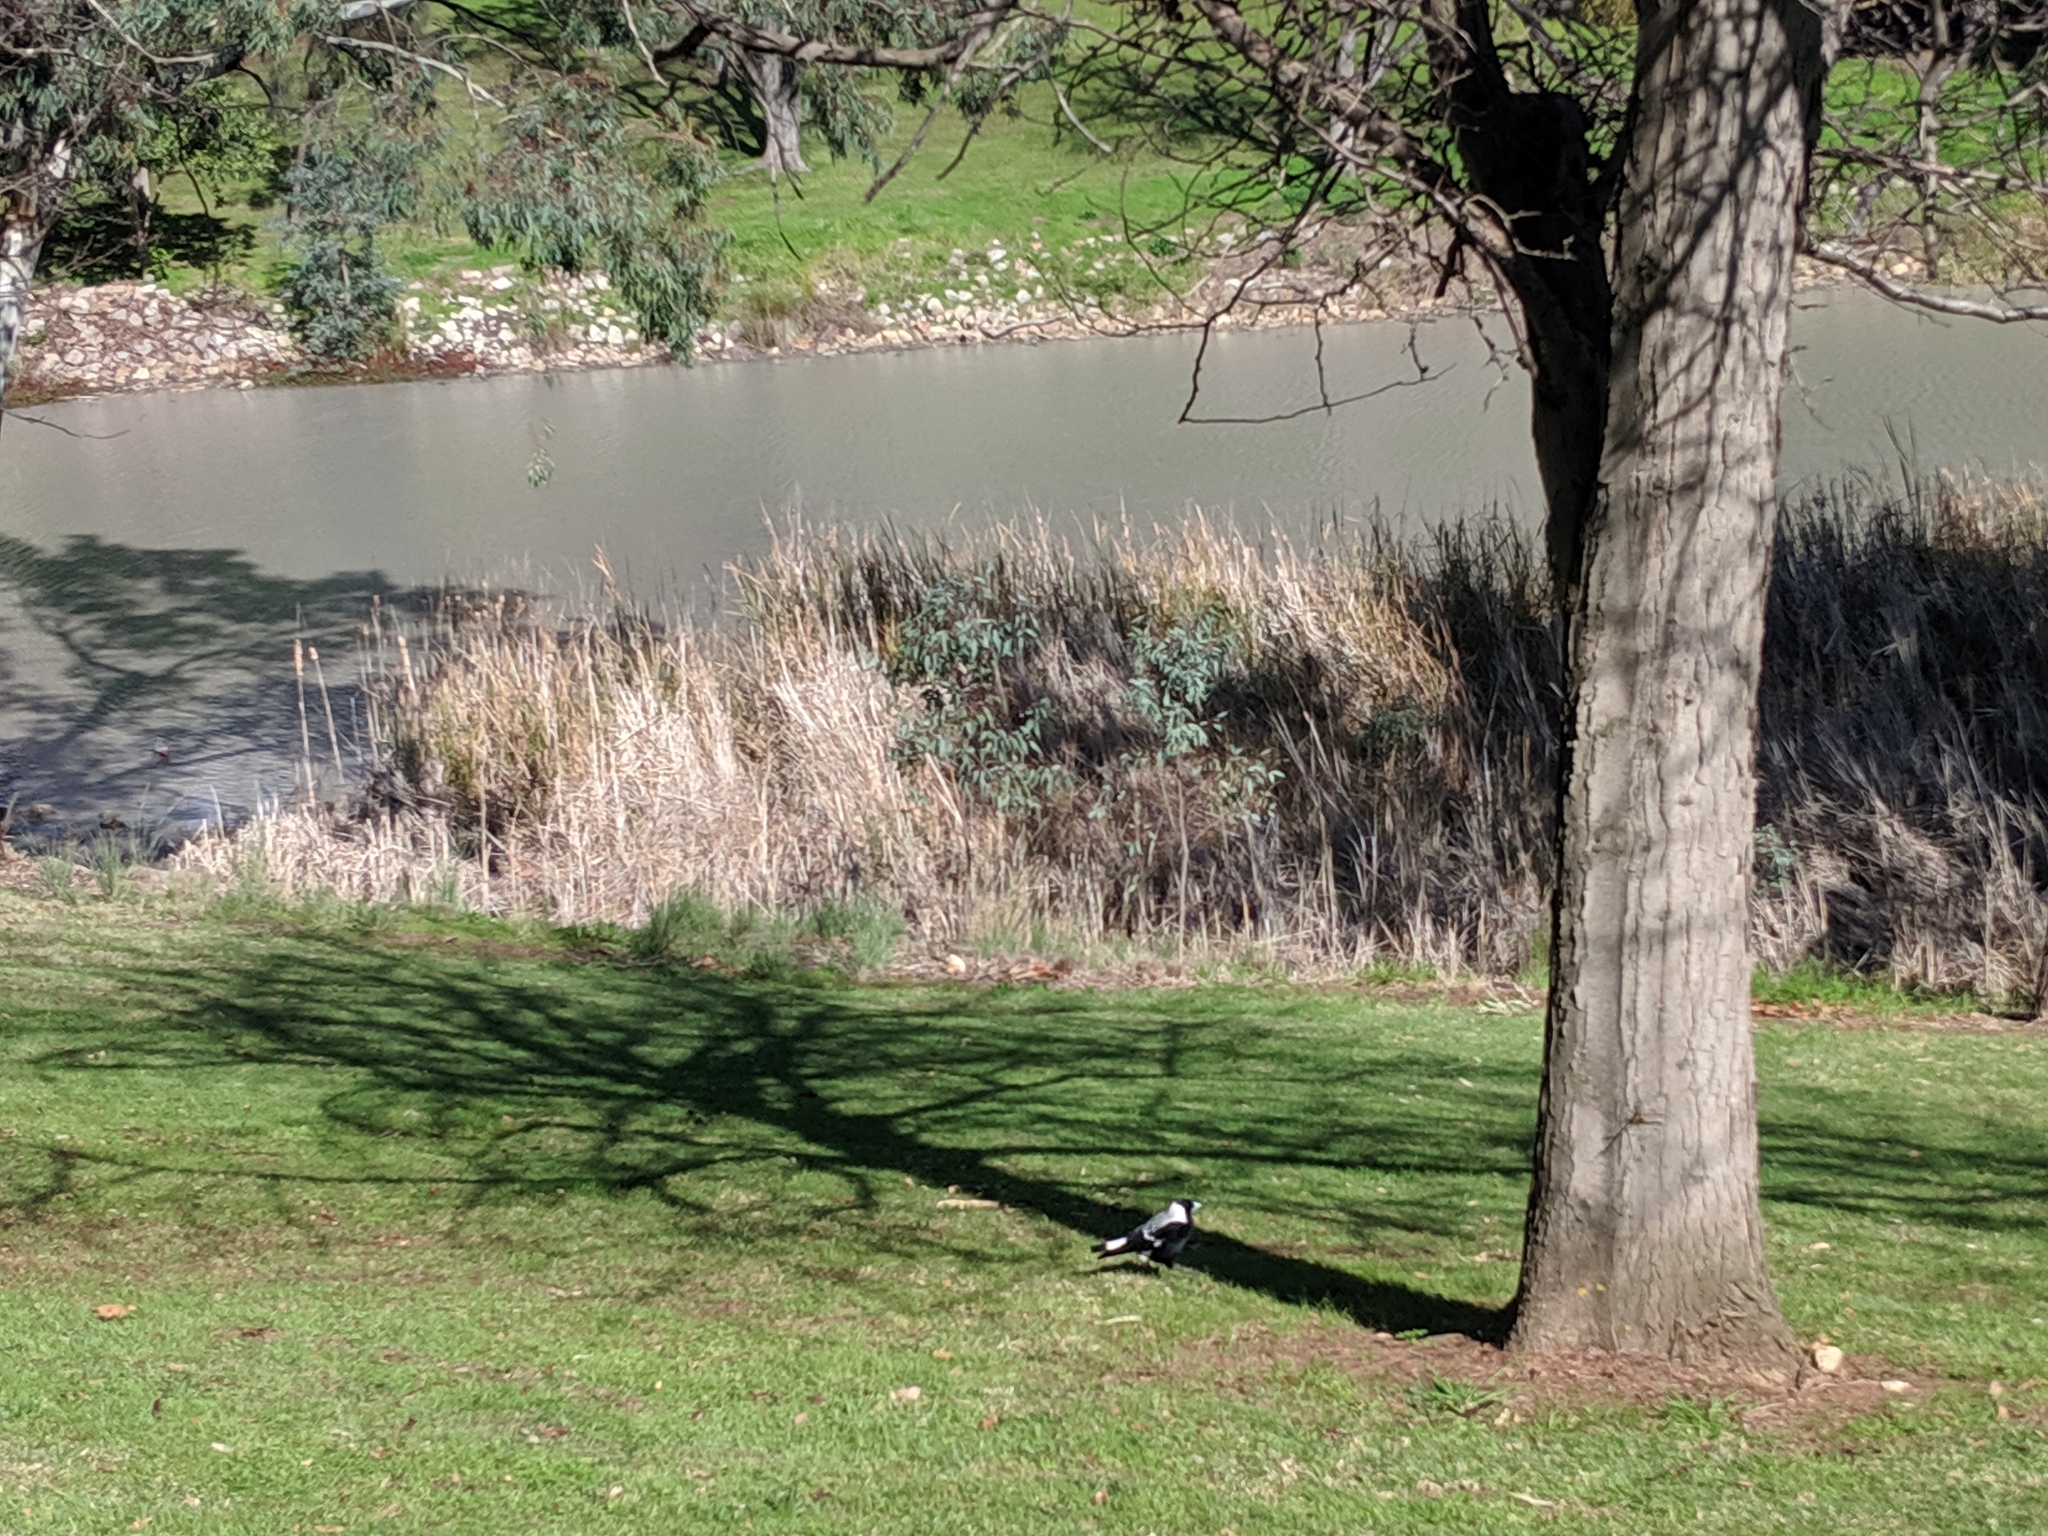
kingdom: Animalia
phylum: Chordata
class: Aves
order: Passeriformes
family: Cracticidae
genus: Gymnorhina
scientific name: Gymnorhina tibicen
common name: Australian magpie
